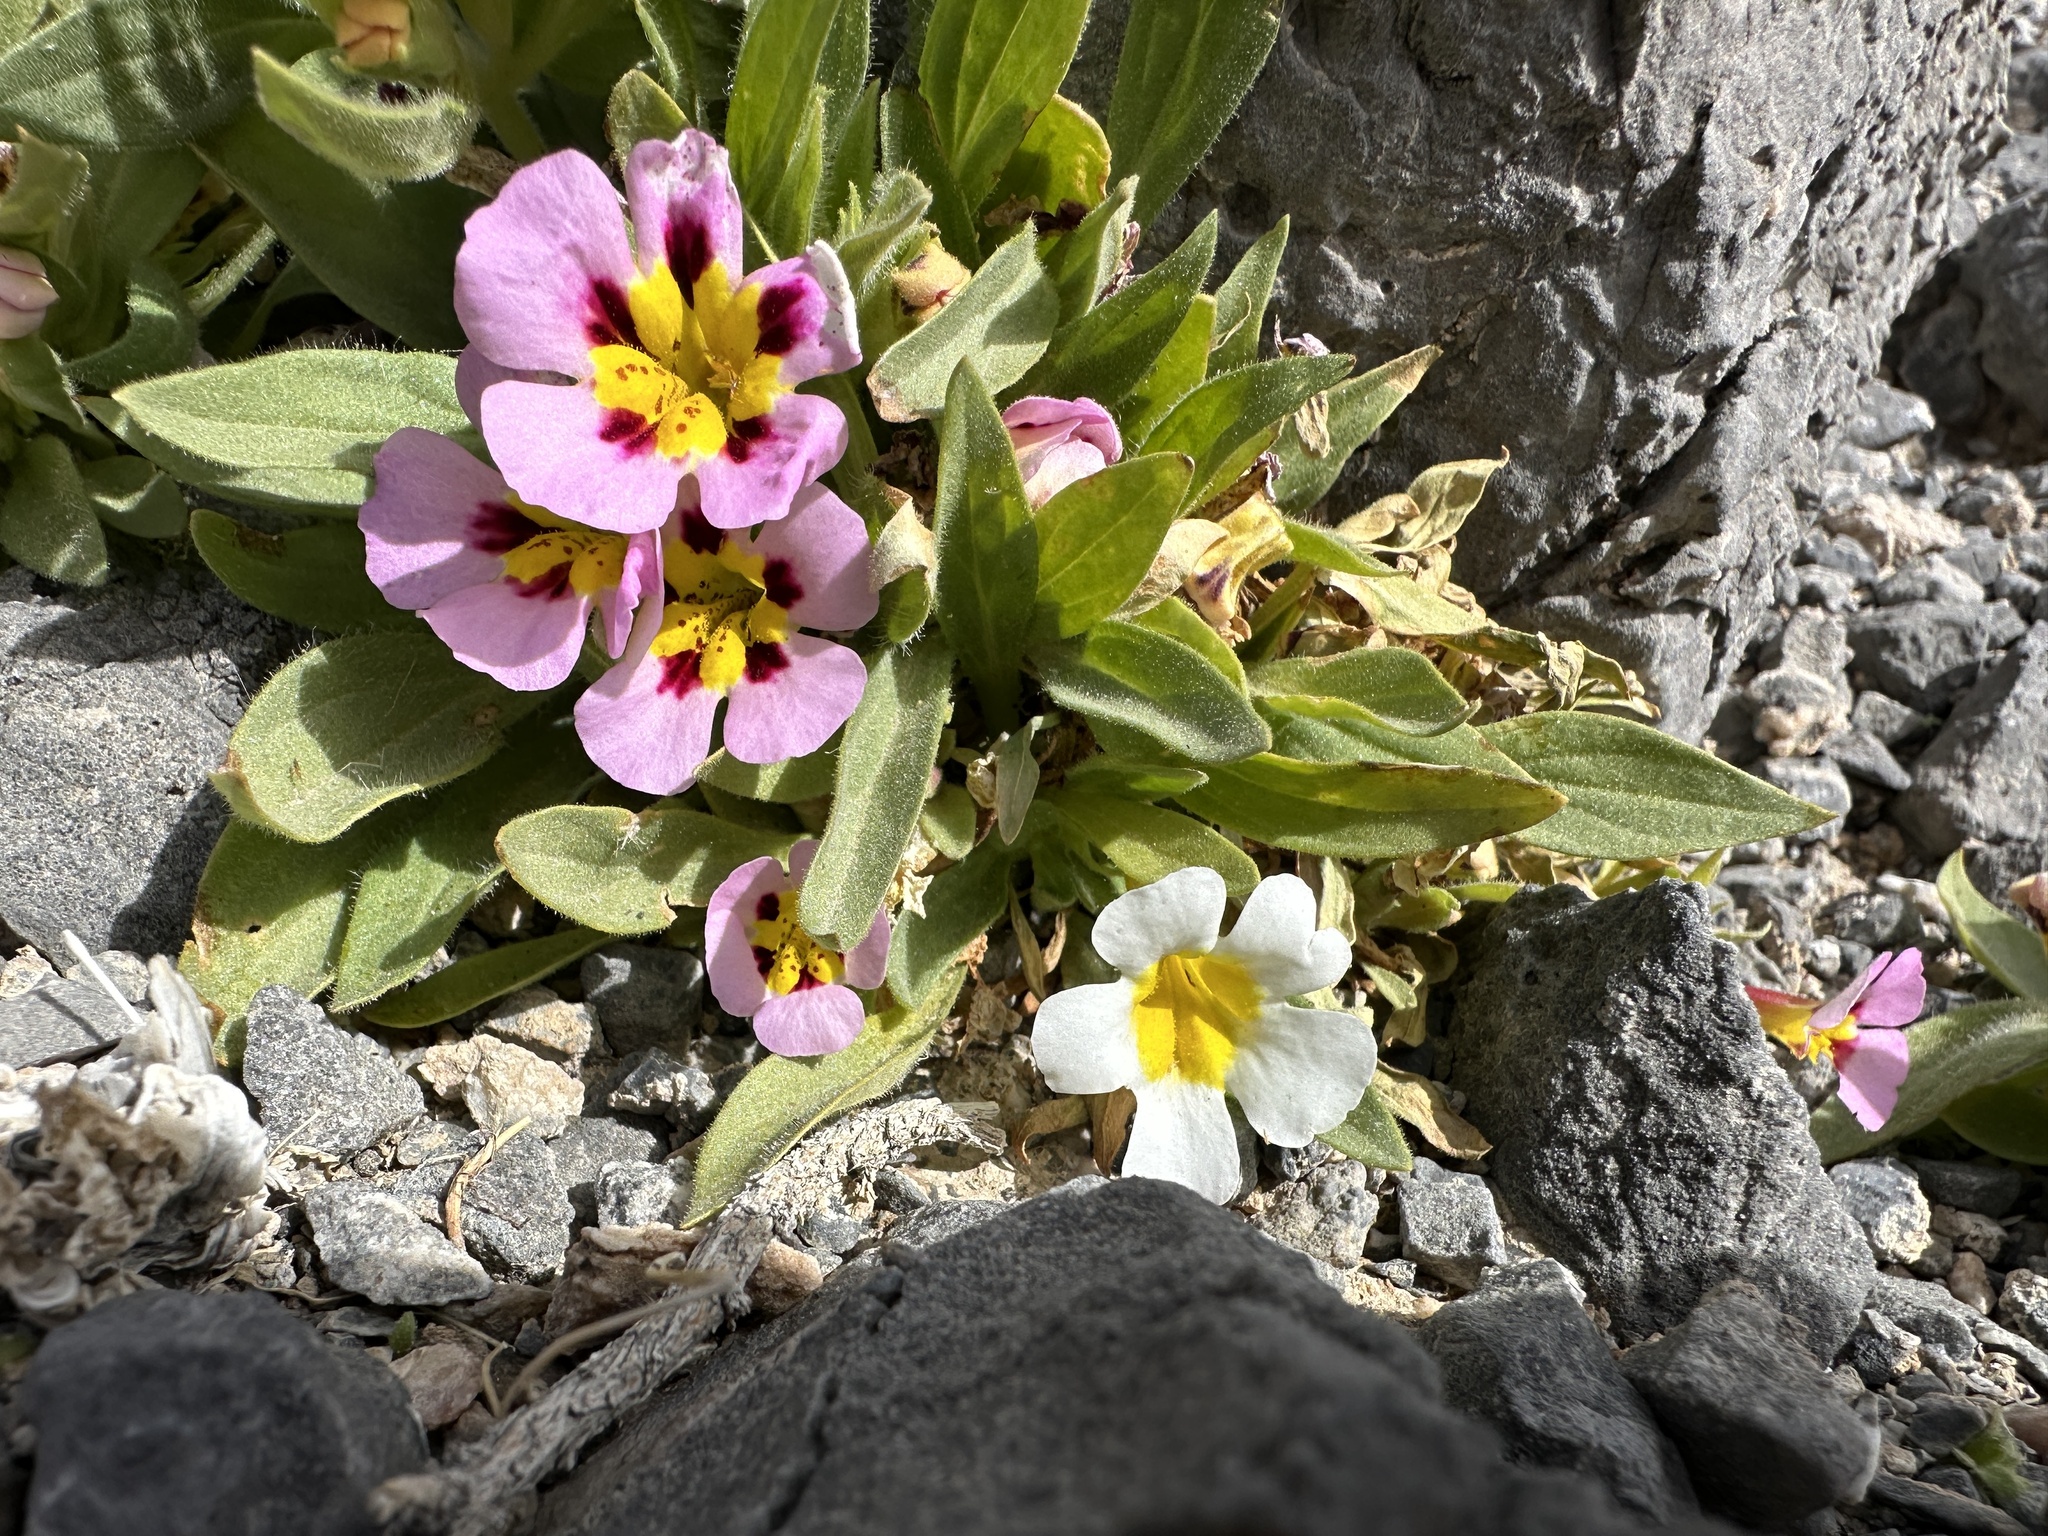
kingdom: Plantae
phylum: Tracheophyta
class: Magnoliopsida
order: Lamiales
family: Phrymaceae
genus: Diplacus
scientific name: Diplacus rupicola
